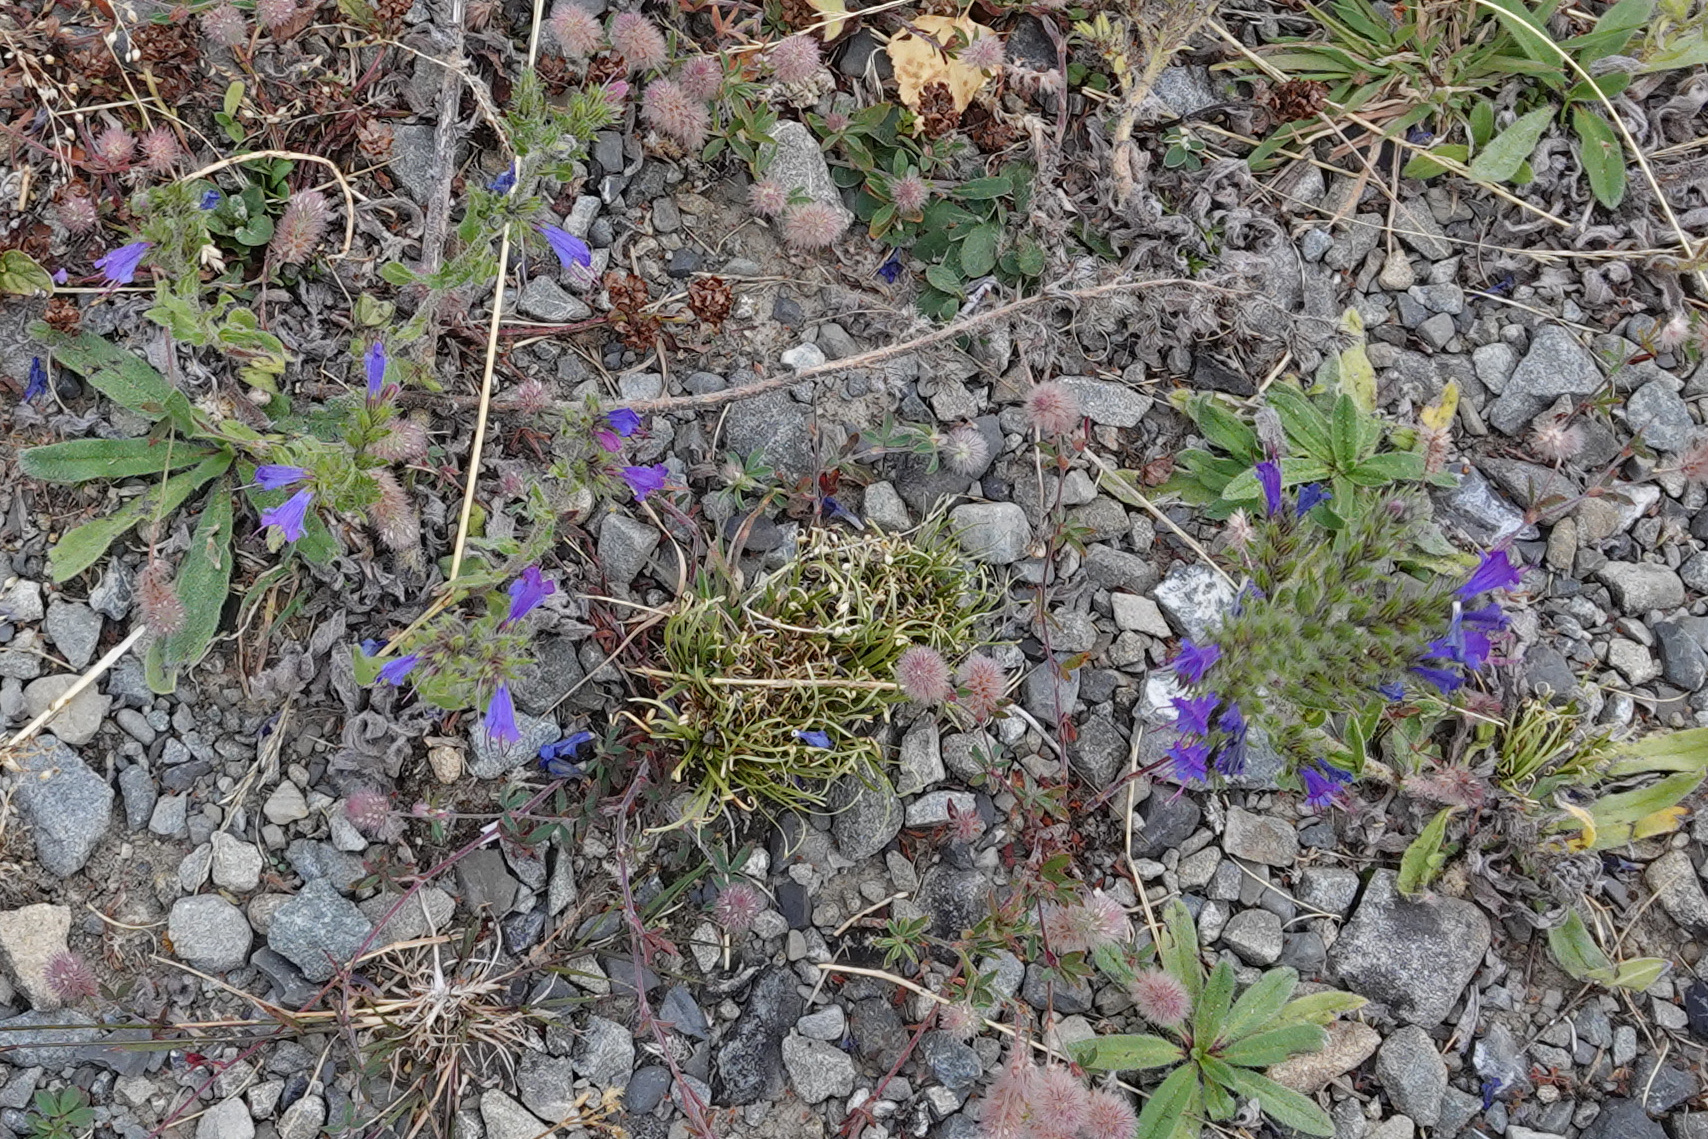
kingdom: Plantae
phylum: Tracheophyta
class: Magnoliopsida
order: Boraginales
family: Boraginaceae
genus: Echium
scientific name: Echium vulgare
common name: Common viper's bugloss
